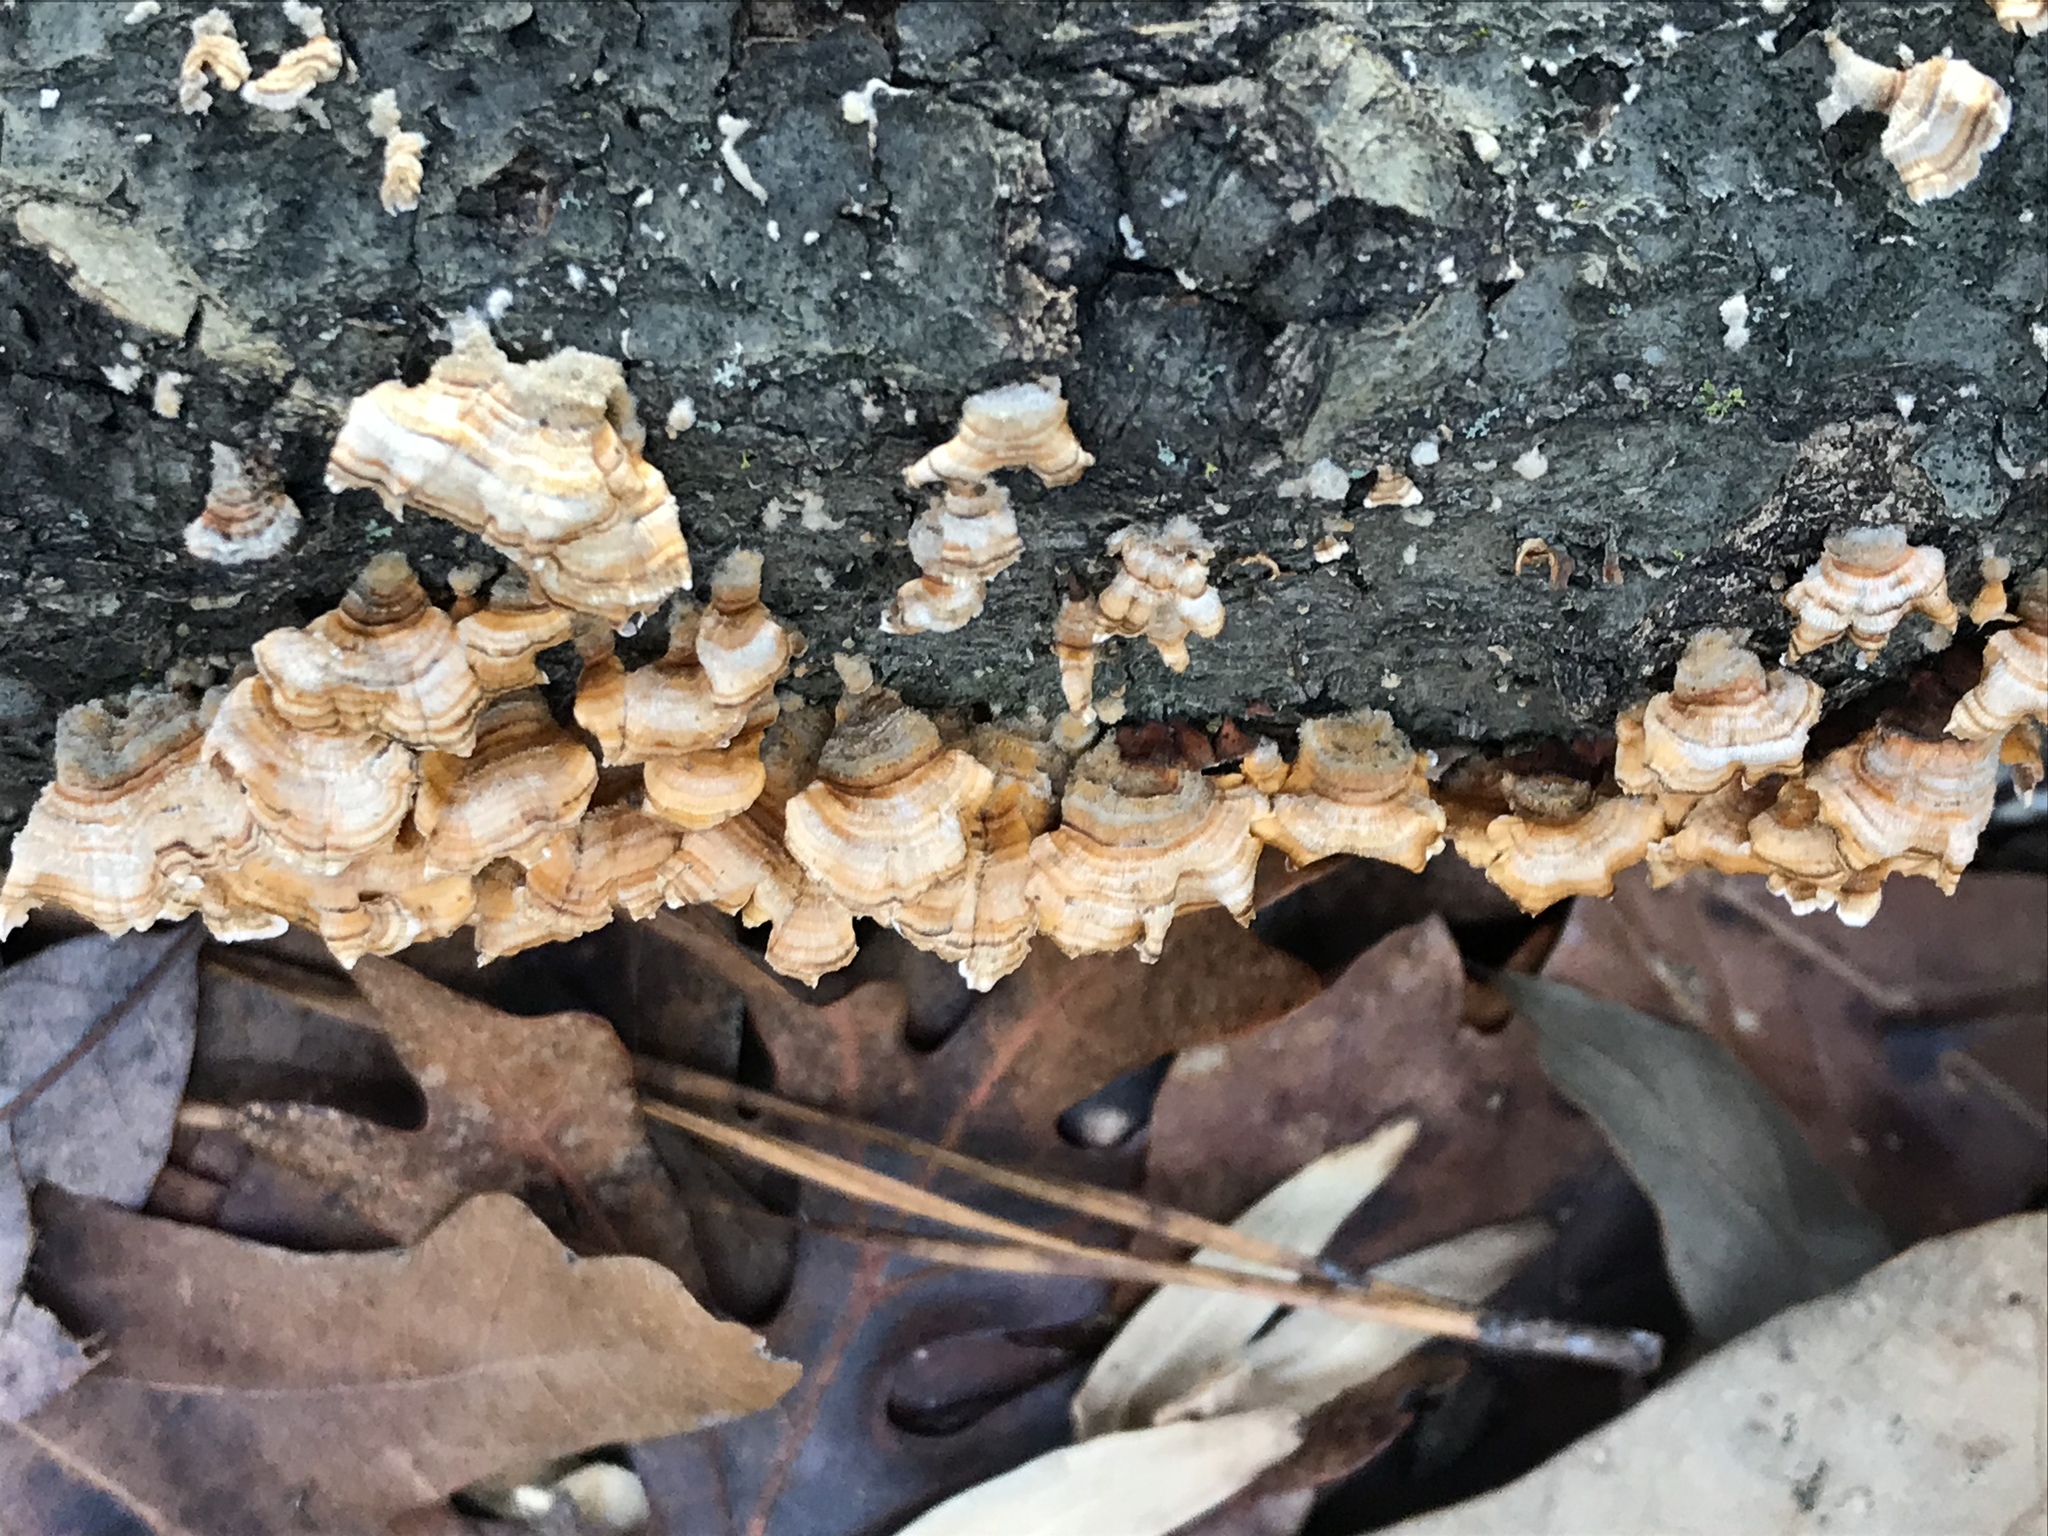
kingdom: Fungi
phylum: Basidiomycota
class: Agaricomycetes
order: Russulales
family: Stereaceae
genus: Stereum
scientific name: Stereum complicatum
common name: Crowded parchment
